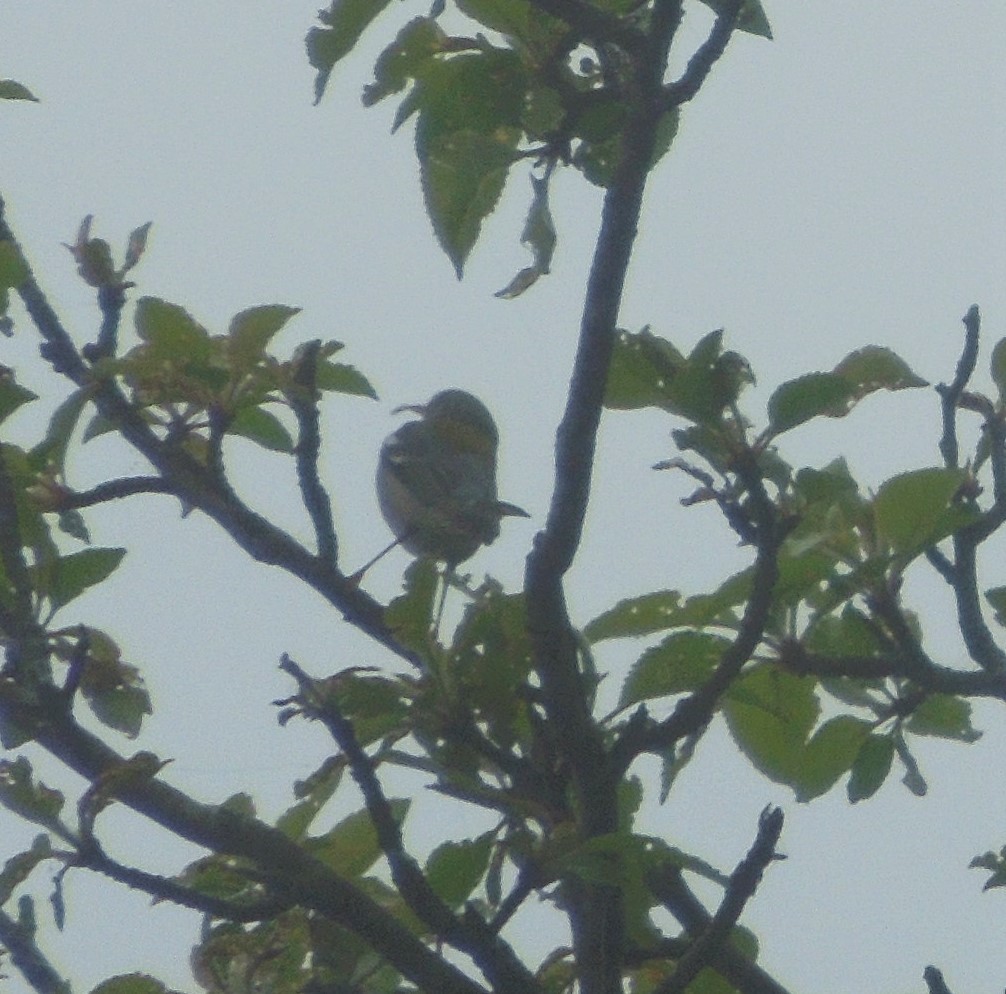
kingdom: Animalia
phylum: Chordata
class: Aves
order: Passeriformes
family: Parulidae
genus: Setophaga
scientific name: Setophaga americana
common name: Northern parula
